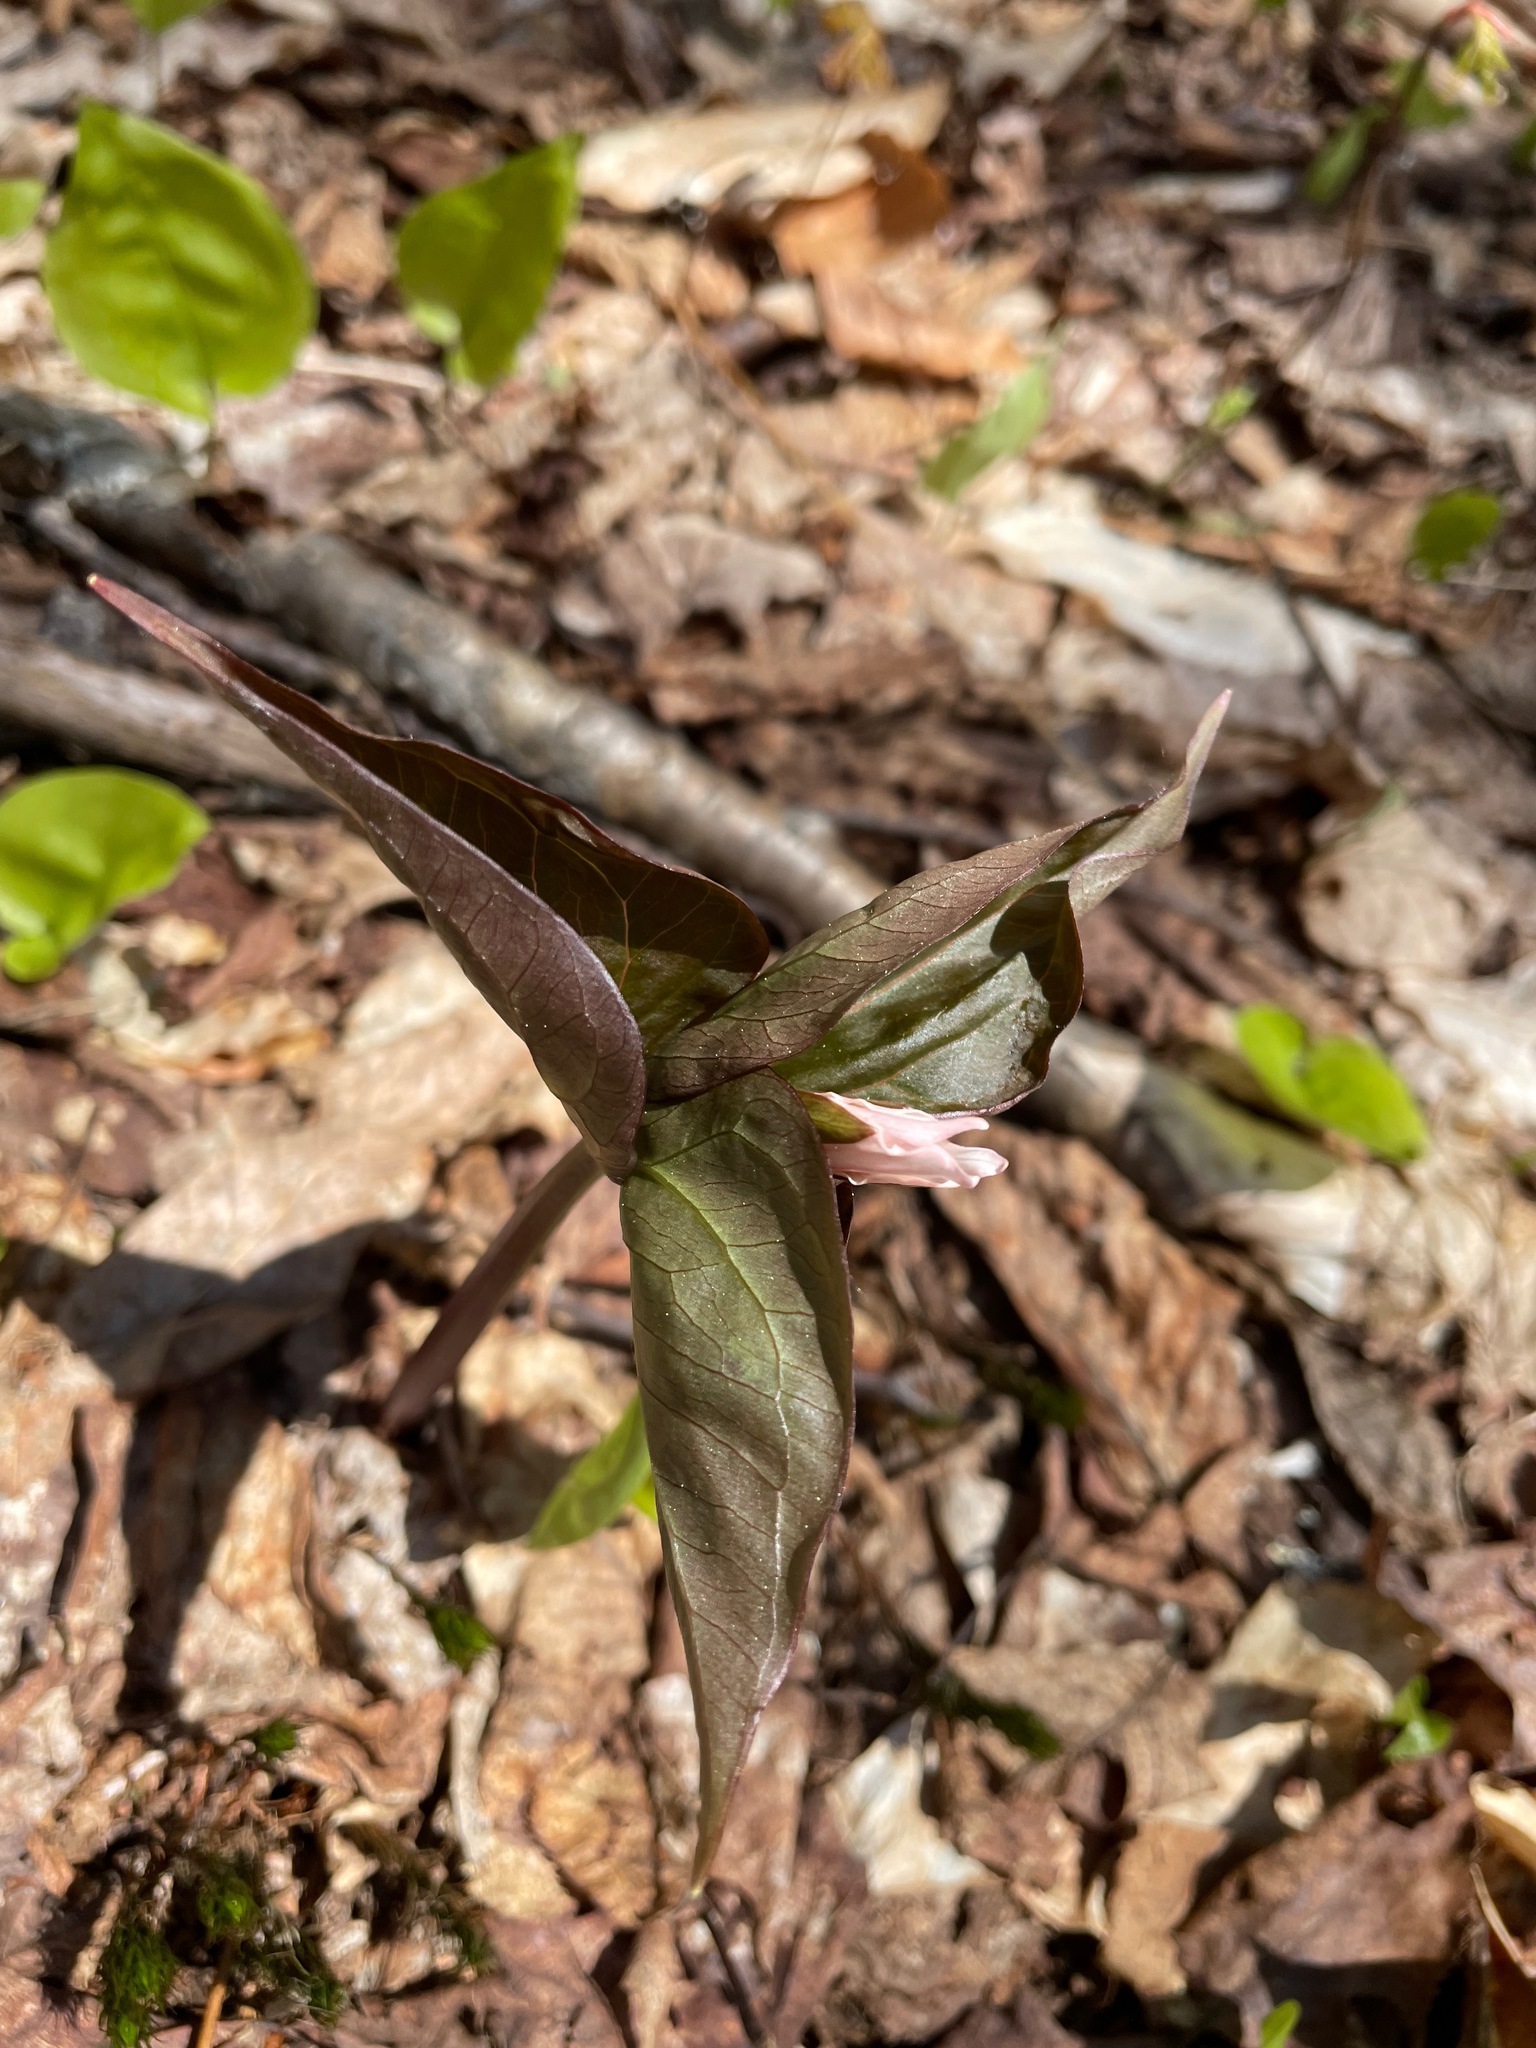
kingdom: Plantae
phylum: Tracheophyta
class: Liliopsida
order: Liliales
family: Melanthiaceae
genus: Trillium
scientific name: Trillium undulatum
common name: Paint trillium
